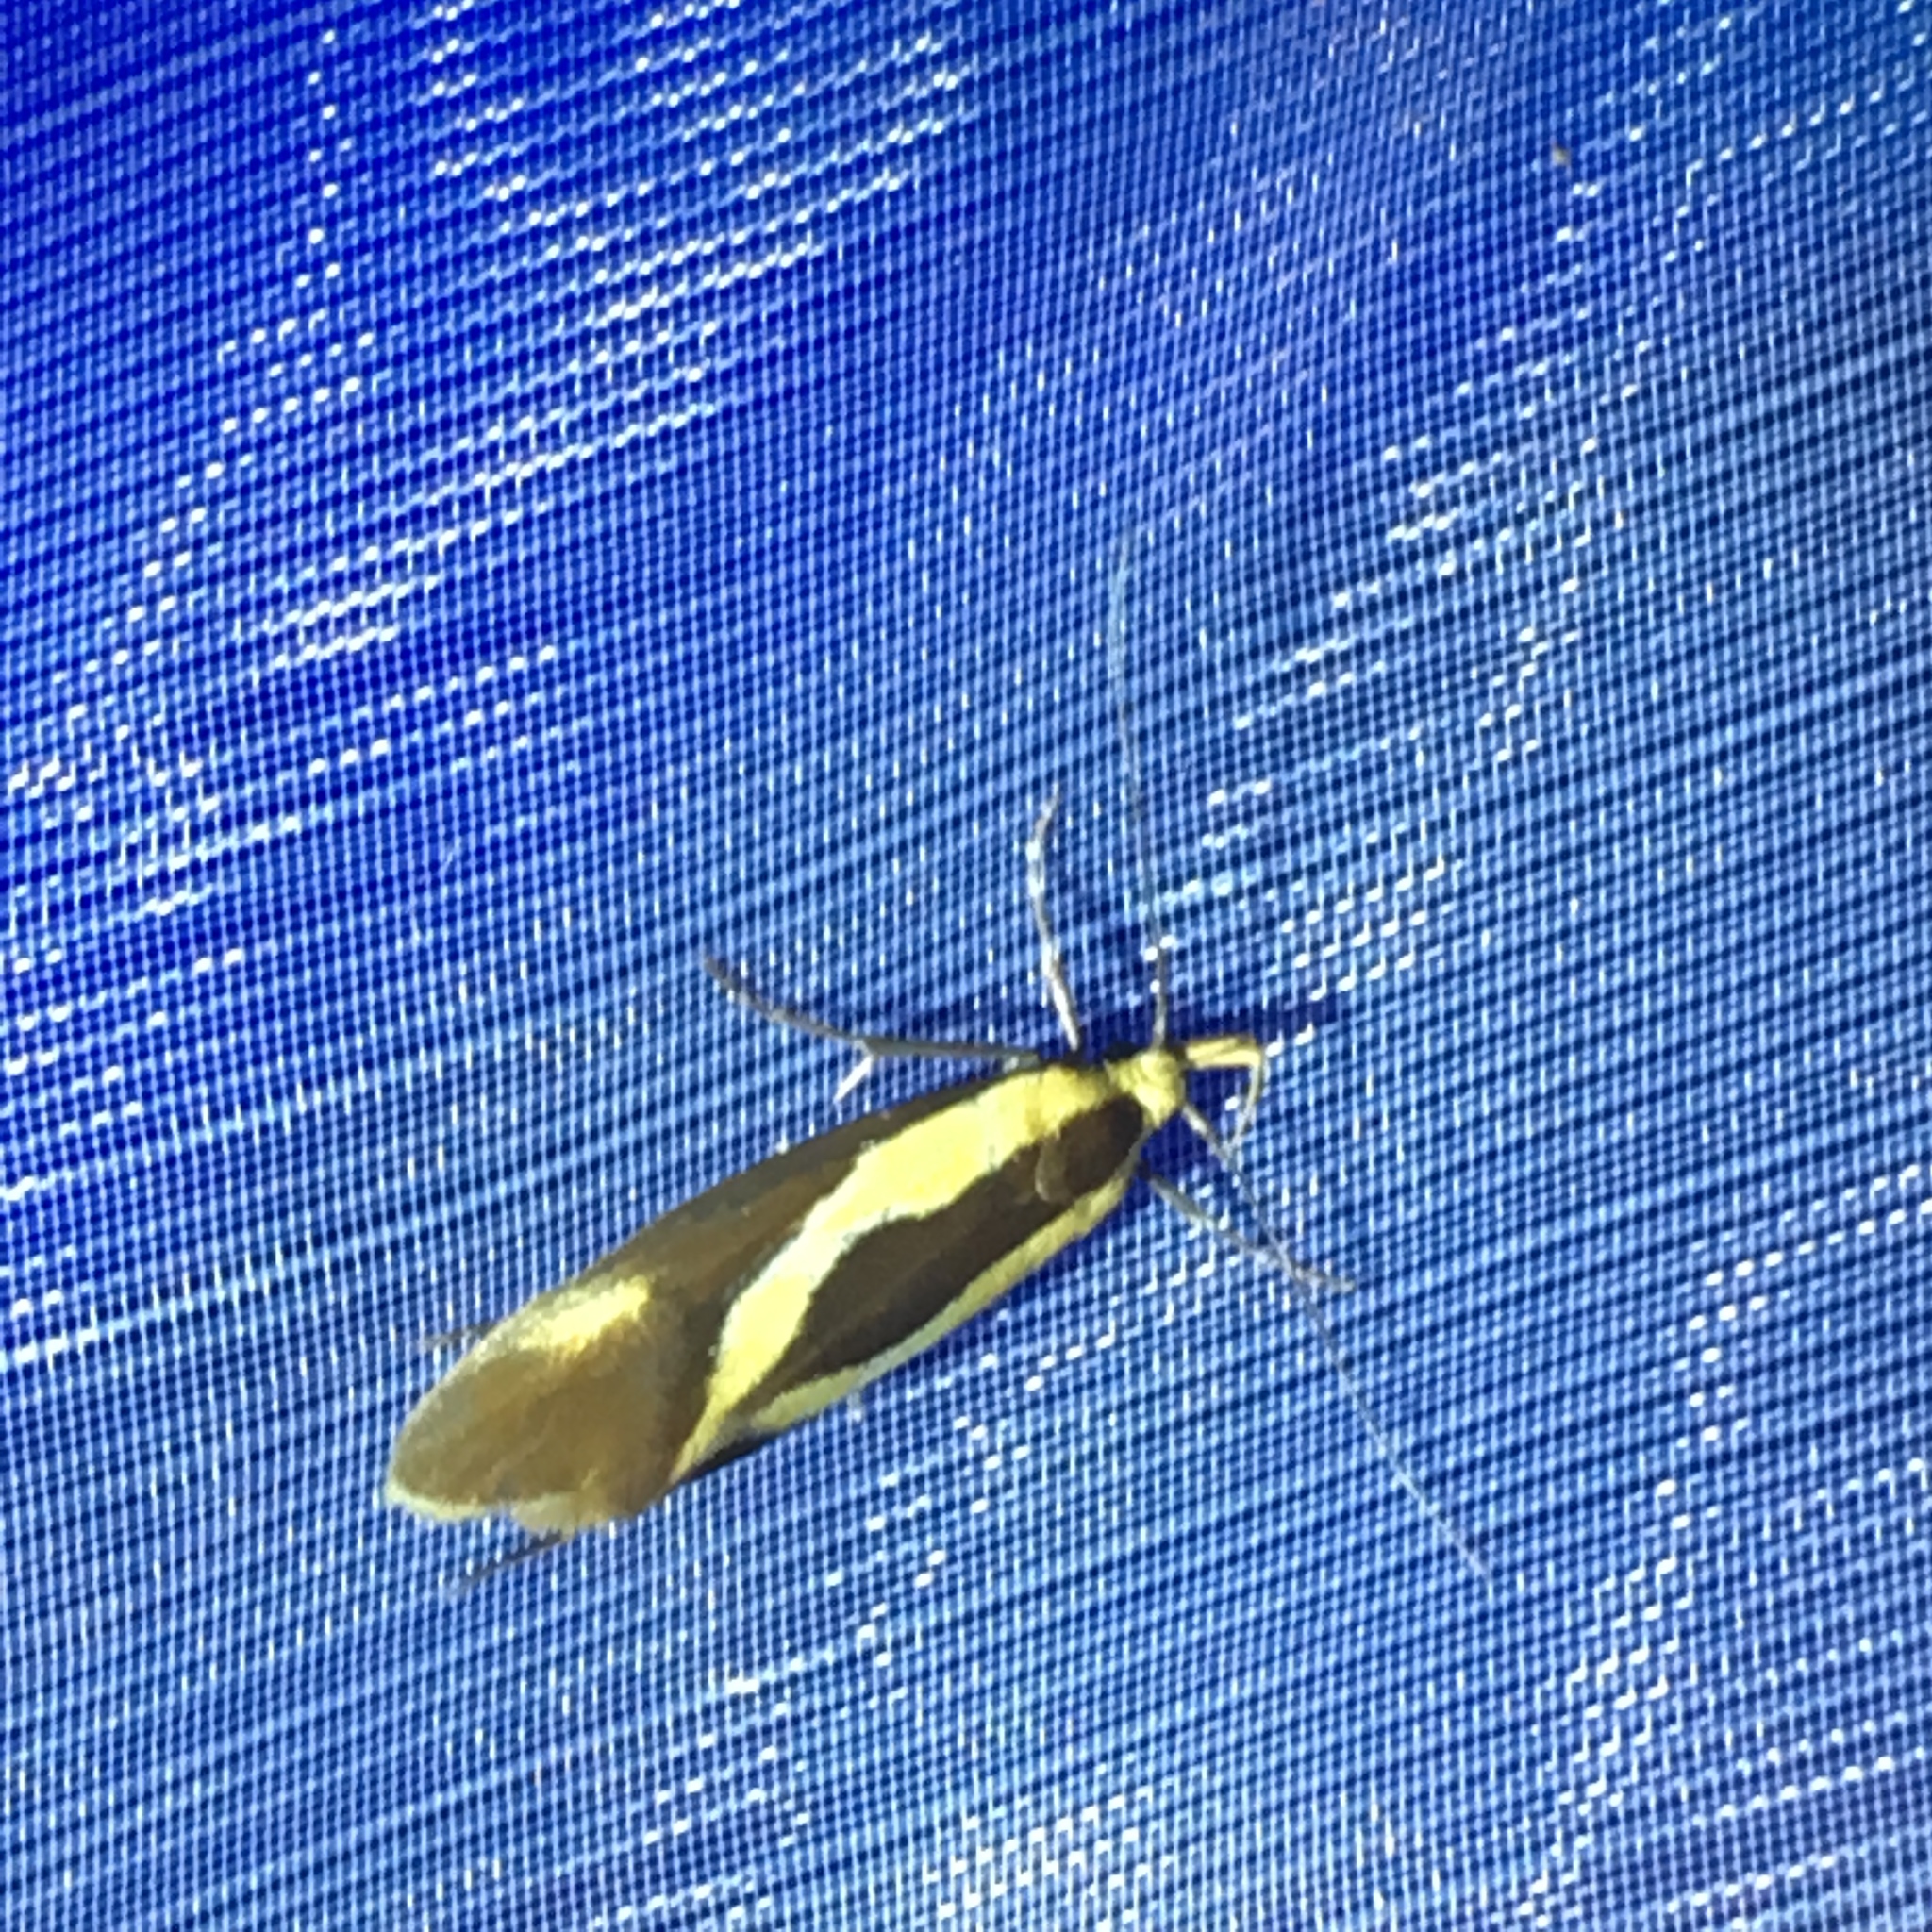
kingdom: Animalia
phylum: Arthropoda
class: Insecta
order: Lepidoptera
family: Oecophoridae
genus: Harpella
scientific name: Harpella forficella
